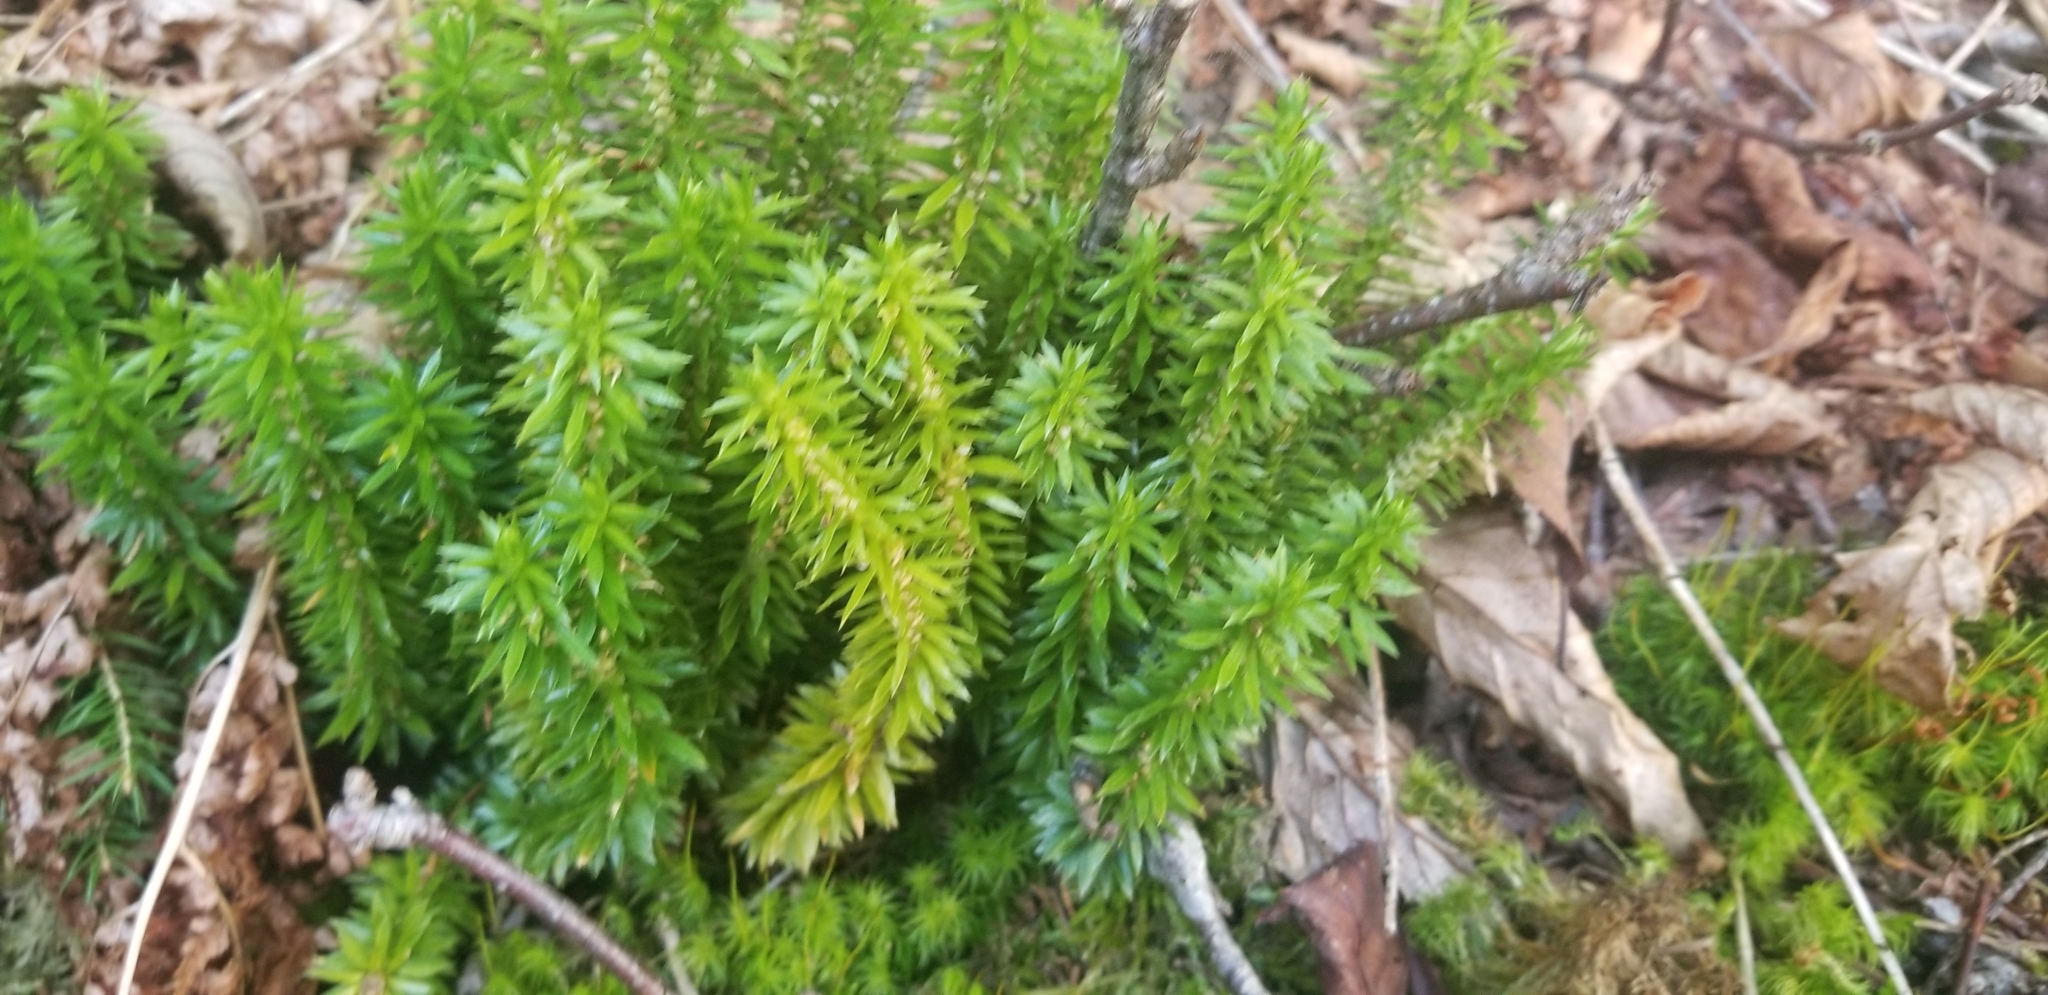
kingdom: Plantae
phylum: Tracheophyta
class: Lycopodiopsida
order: Lycopodiales
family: Lycopodiaceae
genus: Huperzia
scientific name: Huperzia lucidula
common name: Shining clubmoss
